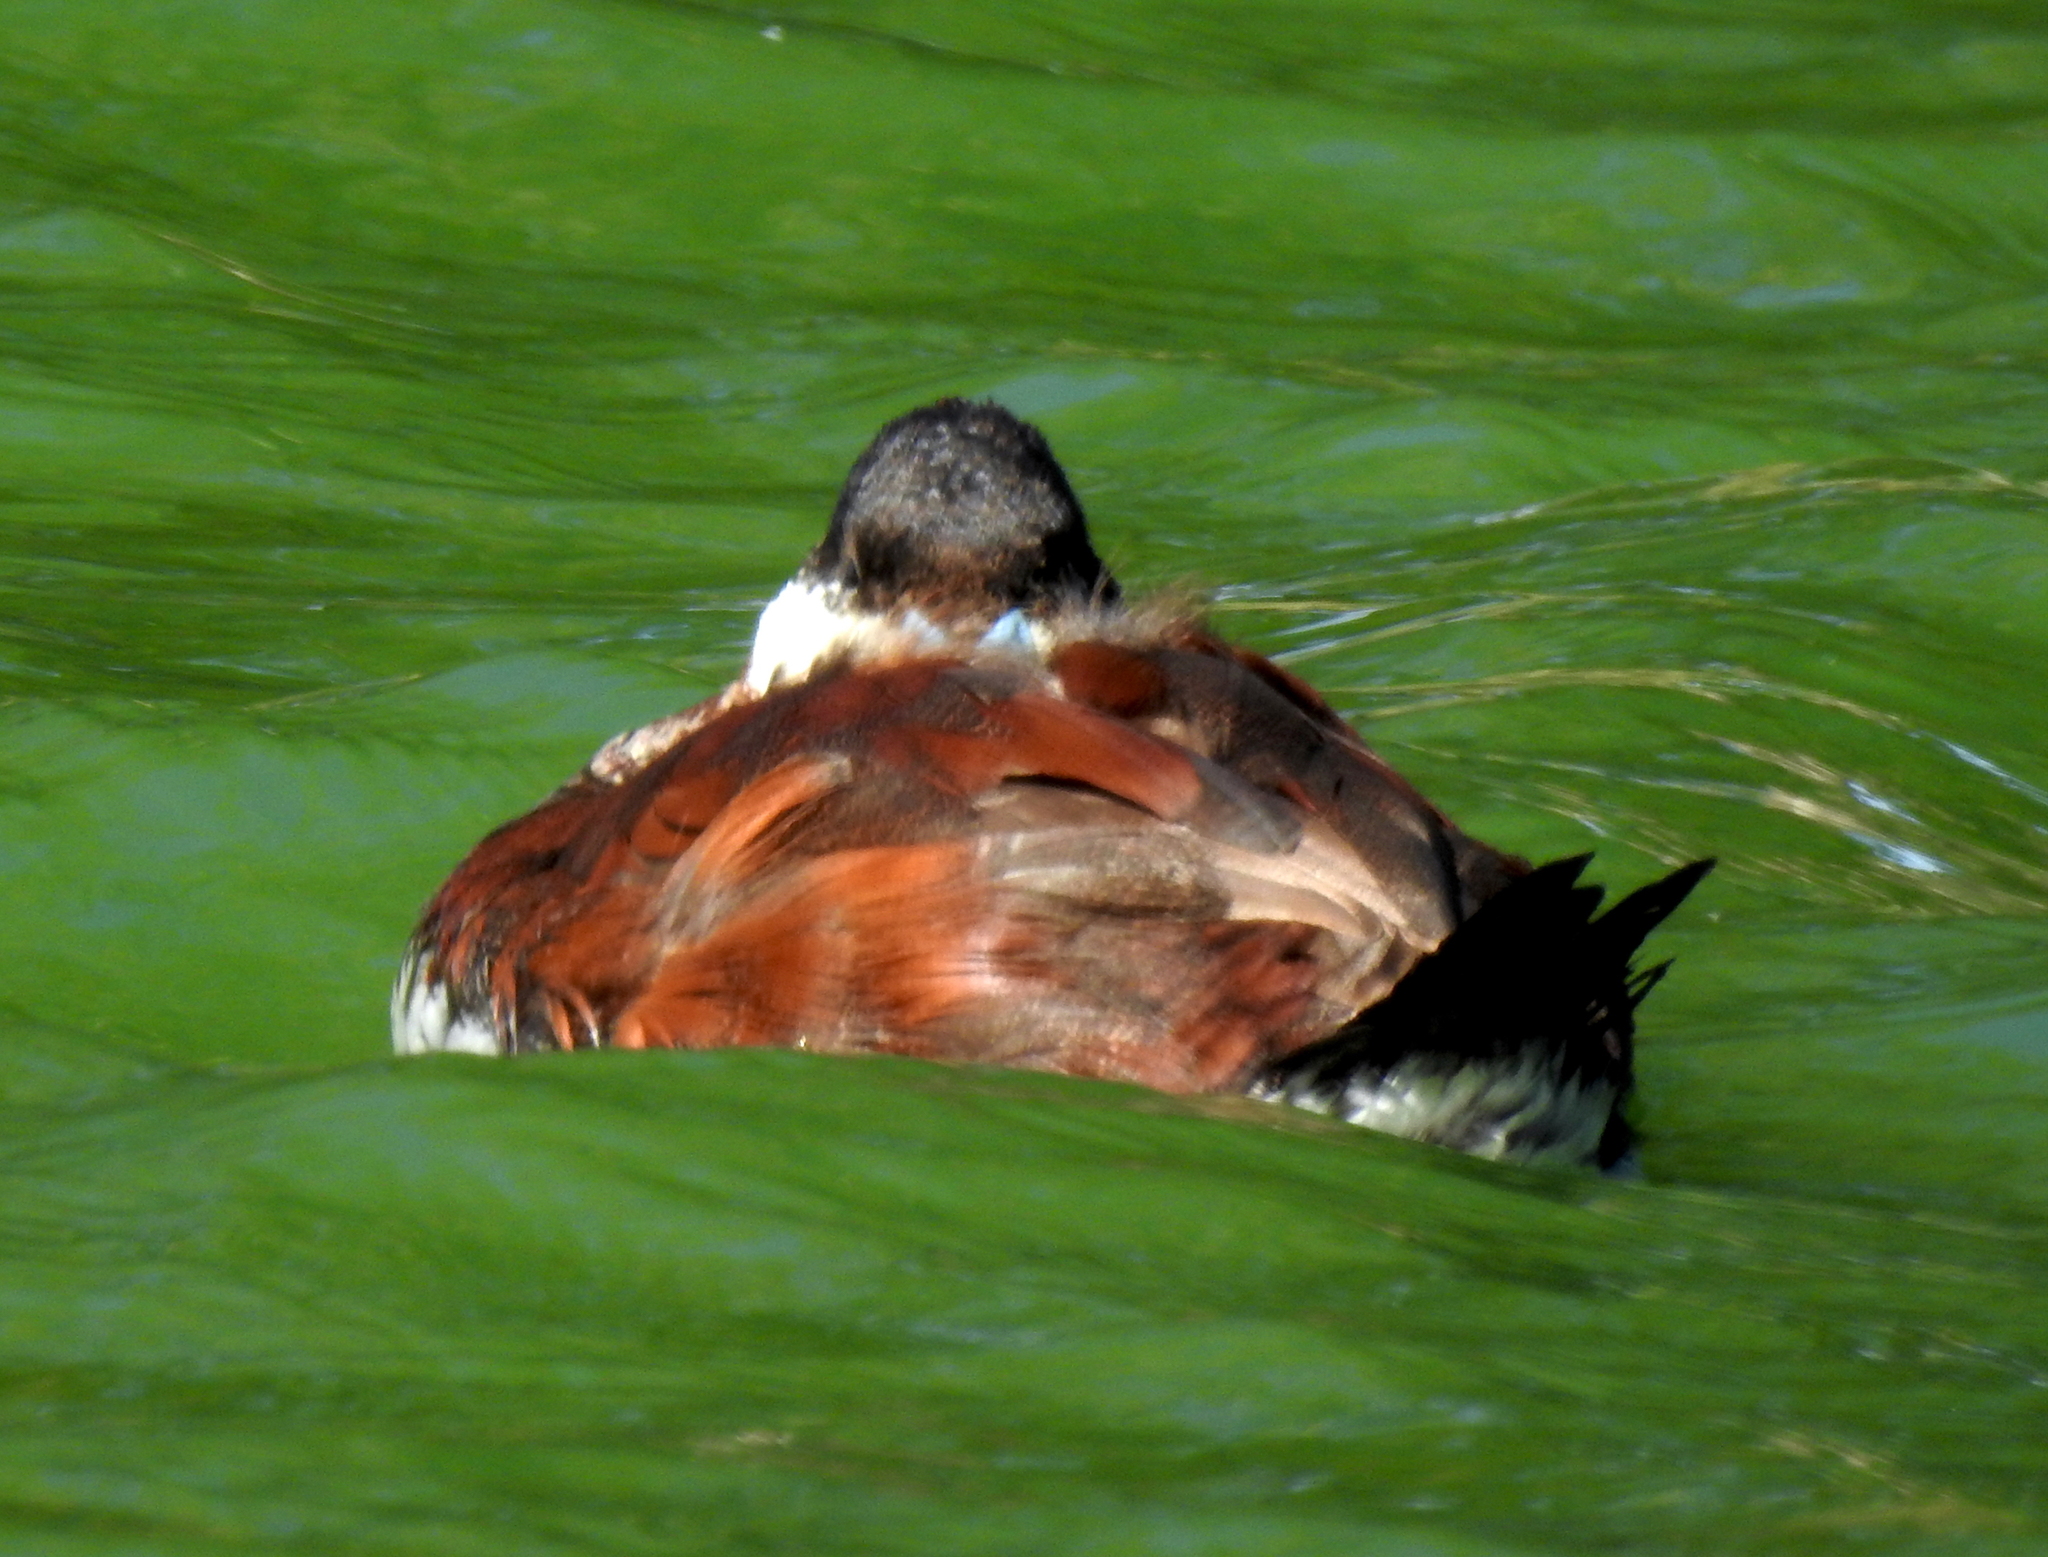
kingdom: Animalia
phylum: Chordata
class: Aves
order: Anseriformes
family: Anatidae
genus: Oxyura
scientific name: Oxyura jamaicensis
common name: Ruddy duck
